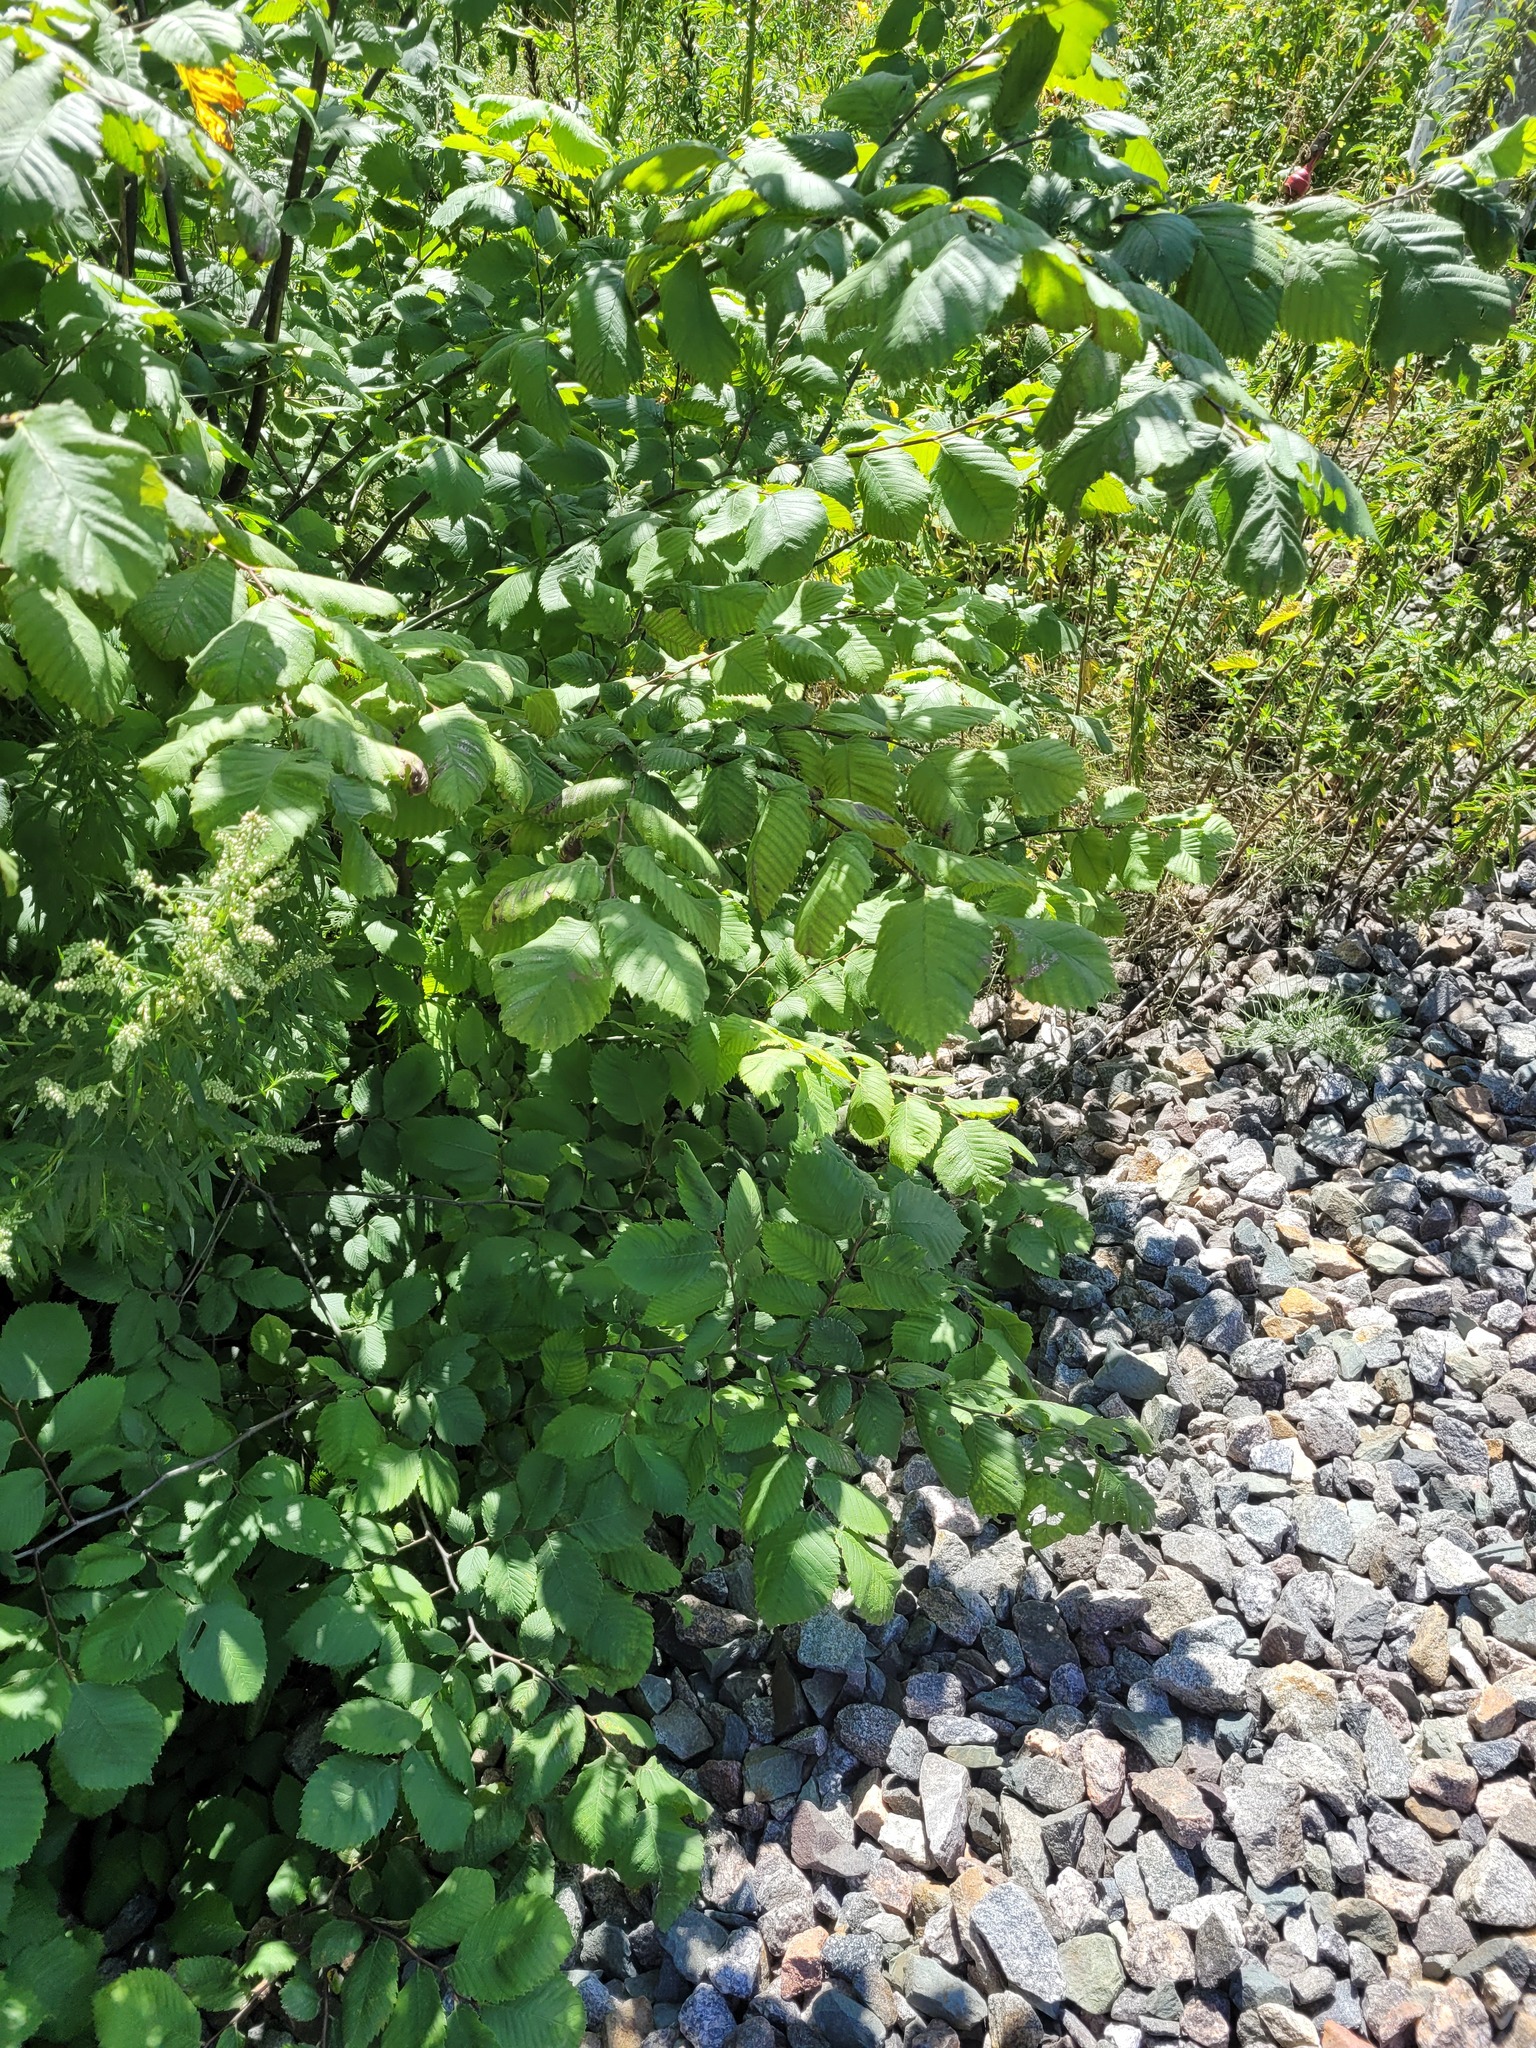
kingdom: Plantae
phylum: Tracheophyta
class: Magnoliopsida
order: Rosales
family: Ulmaceae
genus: Ulmus
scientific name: Ulmus laevis
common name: European white-elm
